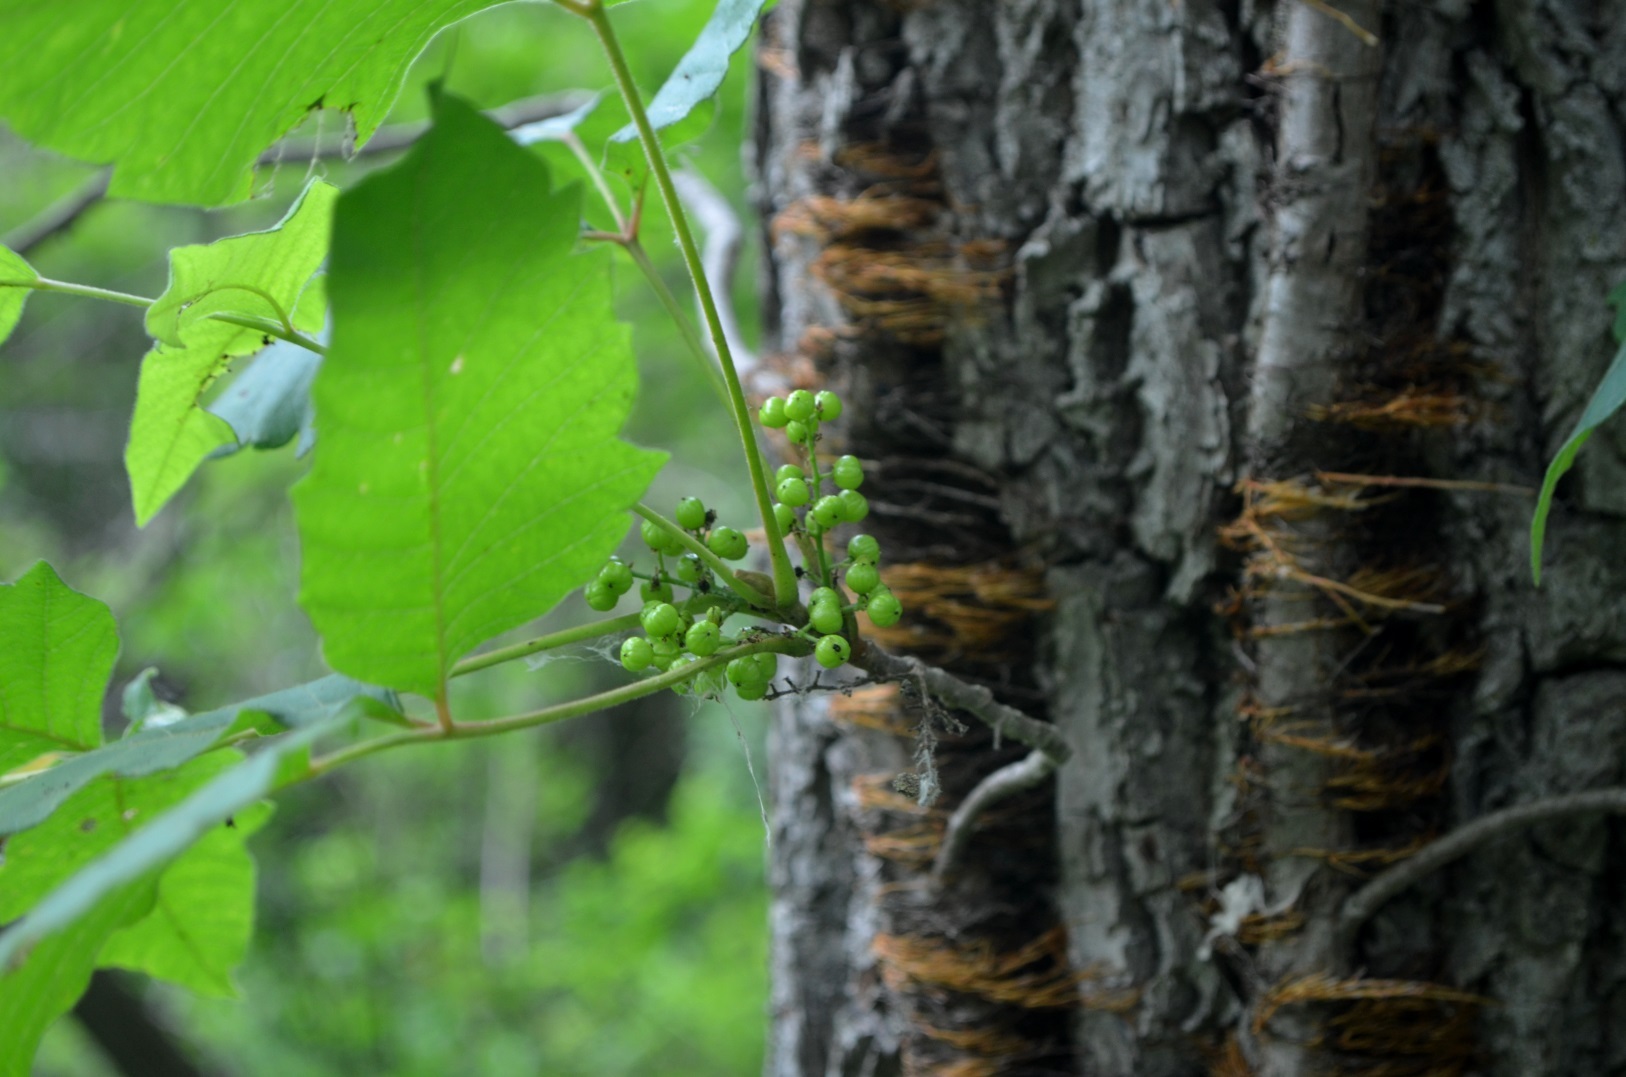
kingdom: Plantae
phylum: Tracheophyta
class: Magnoliopsida
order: Sapindales
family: Anacardiaceae
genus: Toxicodendron
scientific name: Toxicodendron radicans
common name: Poison ivy
